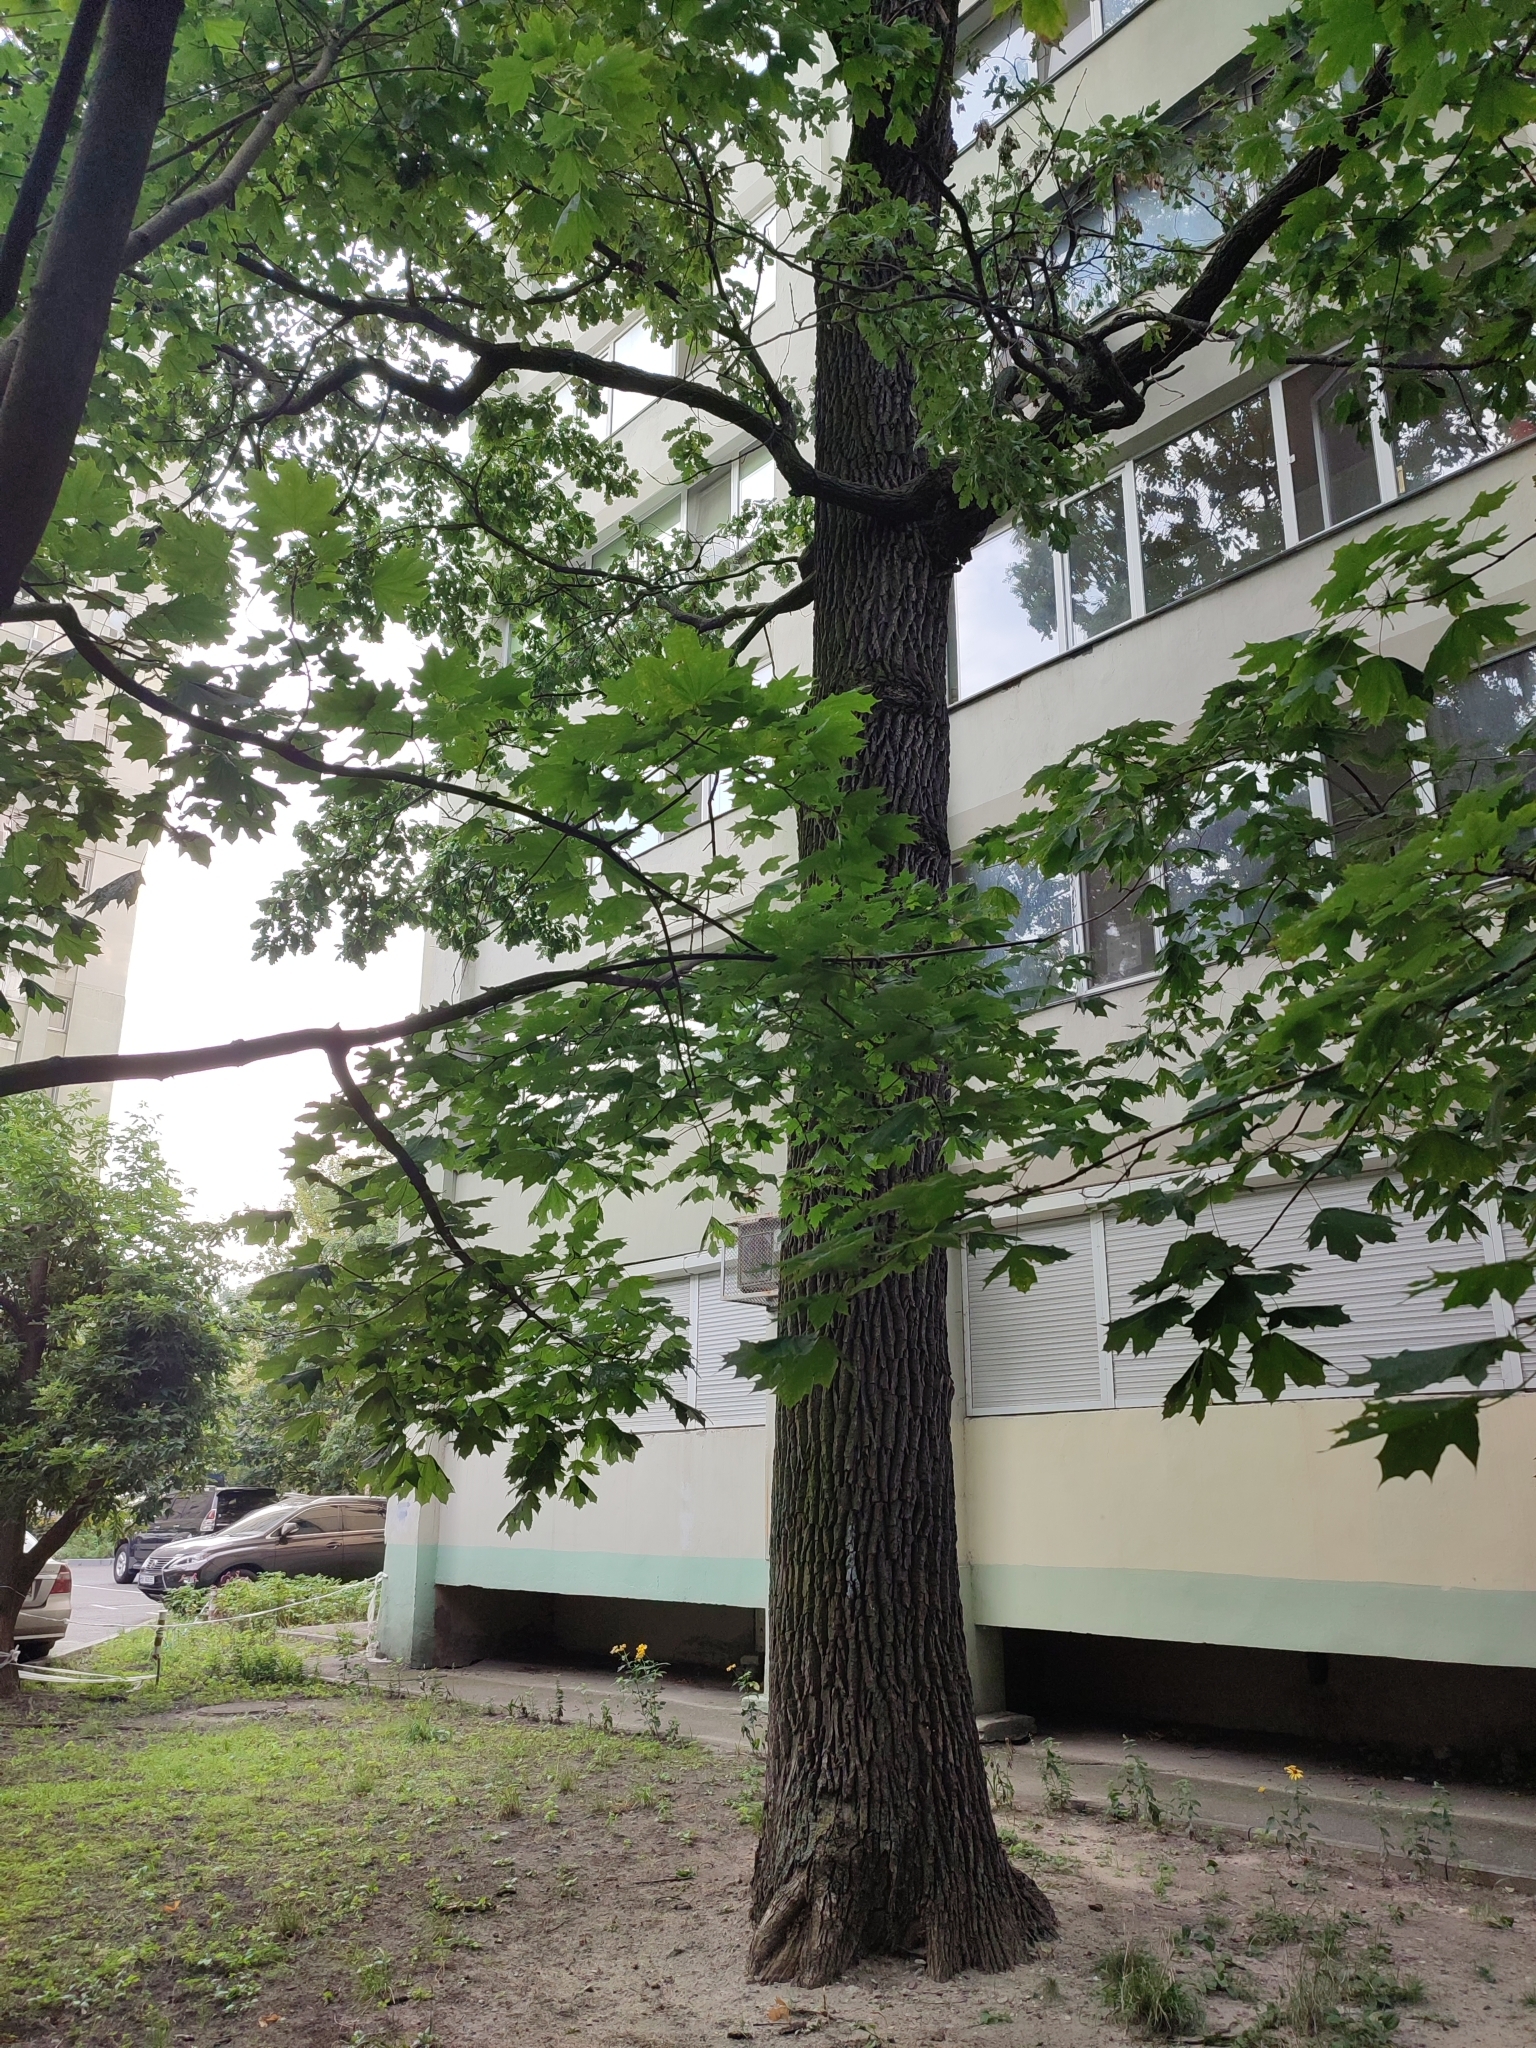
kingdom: Plantae
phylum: Tracheophyta
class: Magnoliopsida
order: Fagales
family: Fagaceae
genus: Quercus
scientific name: Quercus robur
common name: Pedunculate oak
